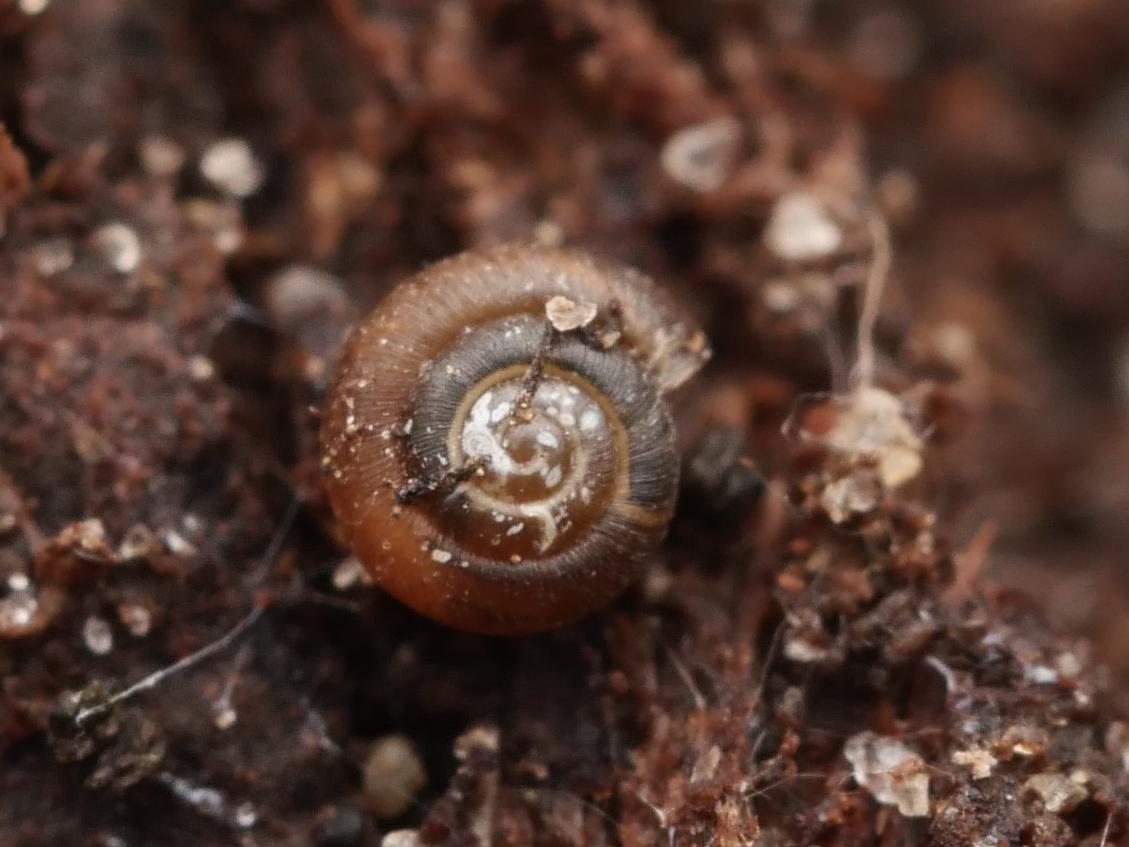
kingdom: Animalia
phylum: Mollusca
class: Gastropoda
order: Stylommatophora
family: Punctidae
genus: Punctum
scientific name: Punctum pygmaeum
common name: Dwarf snail
